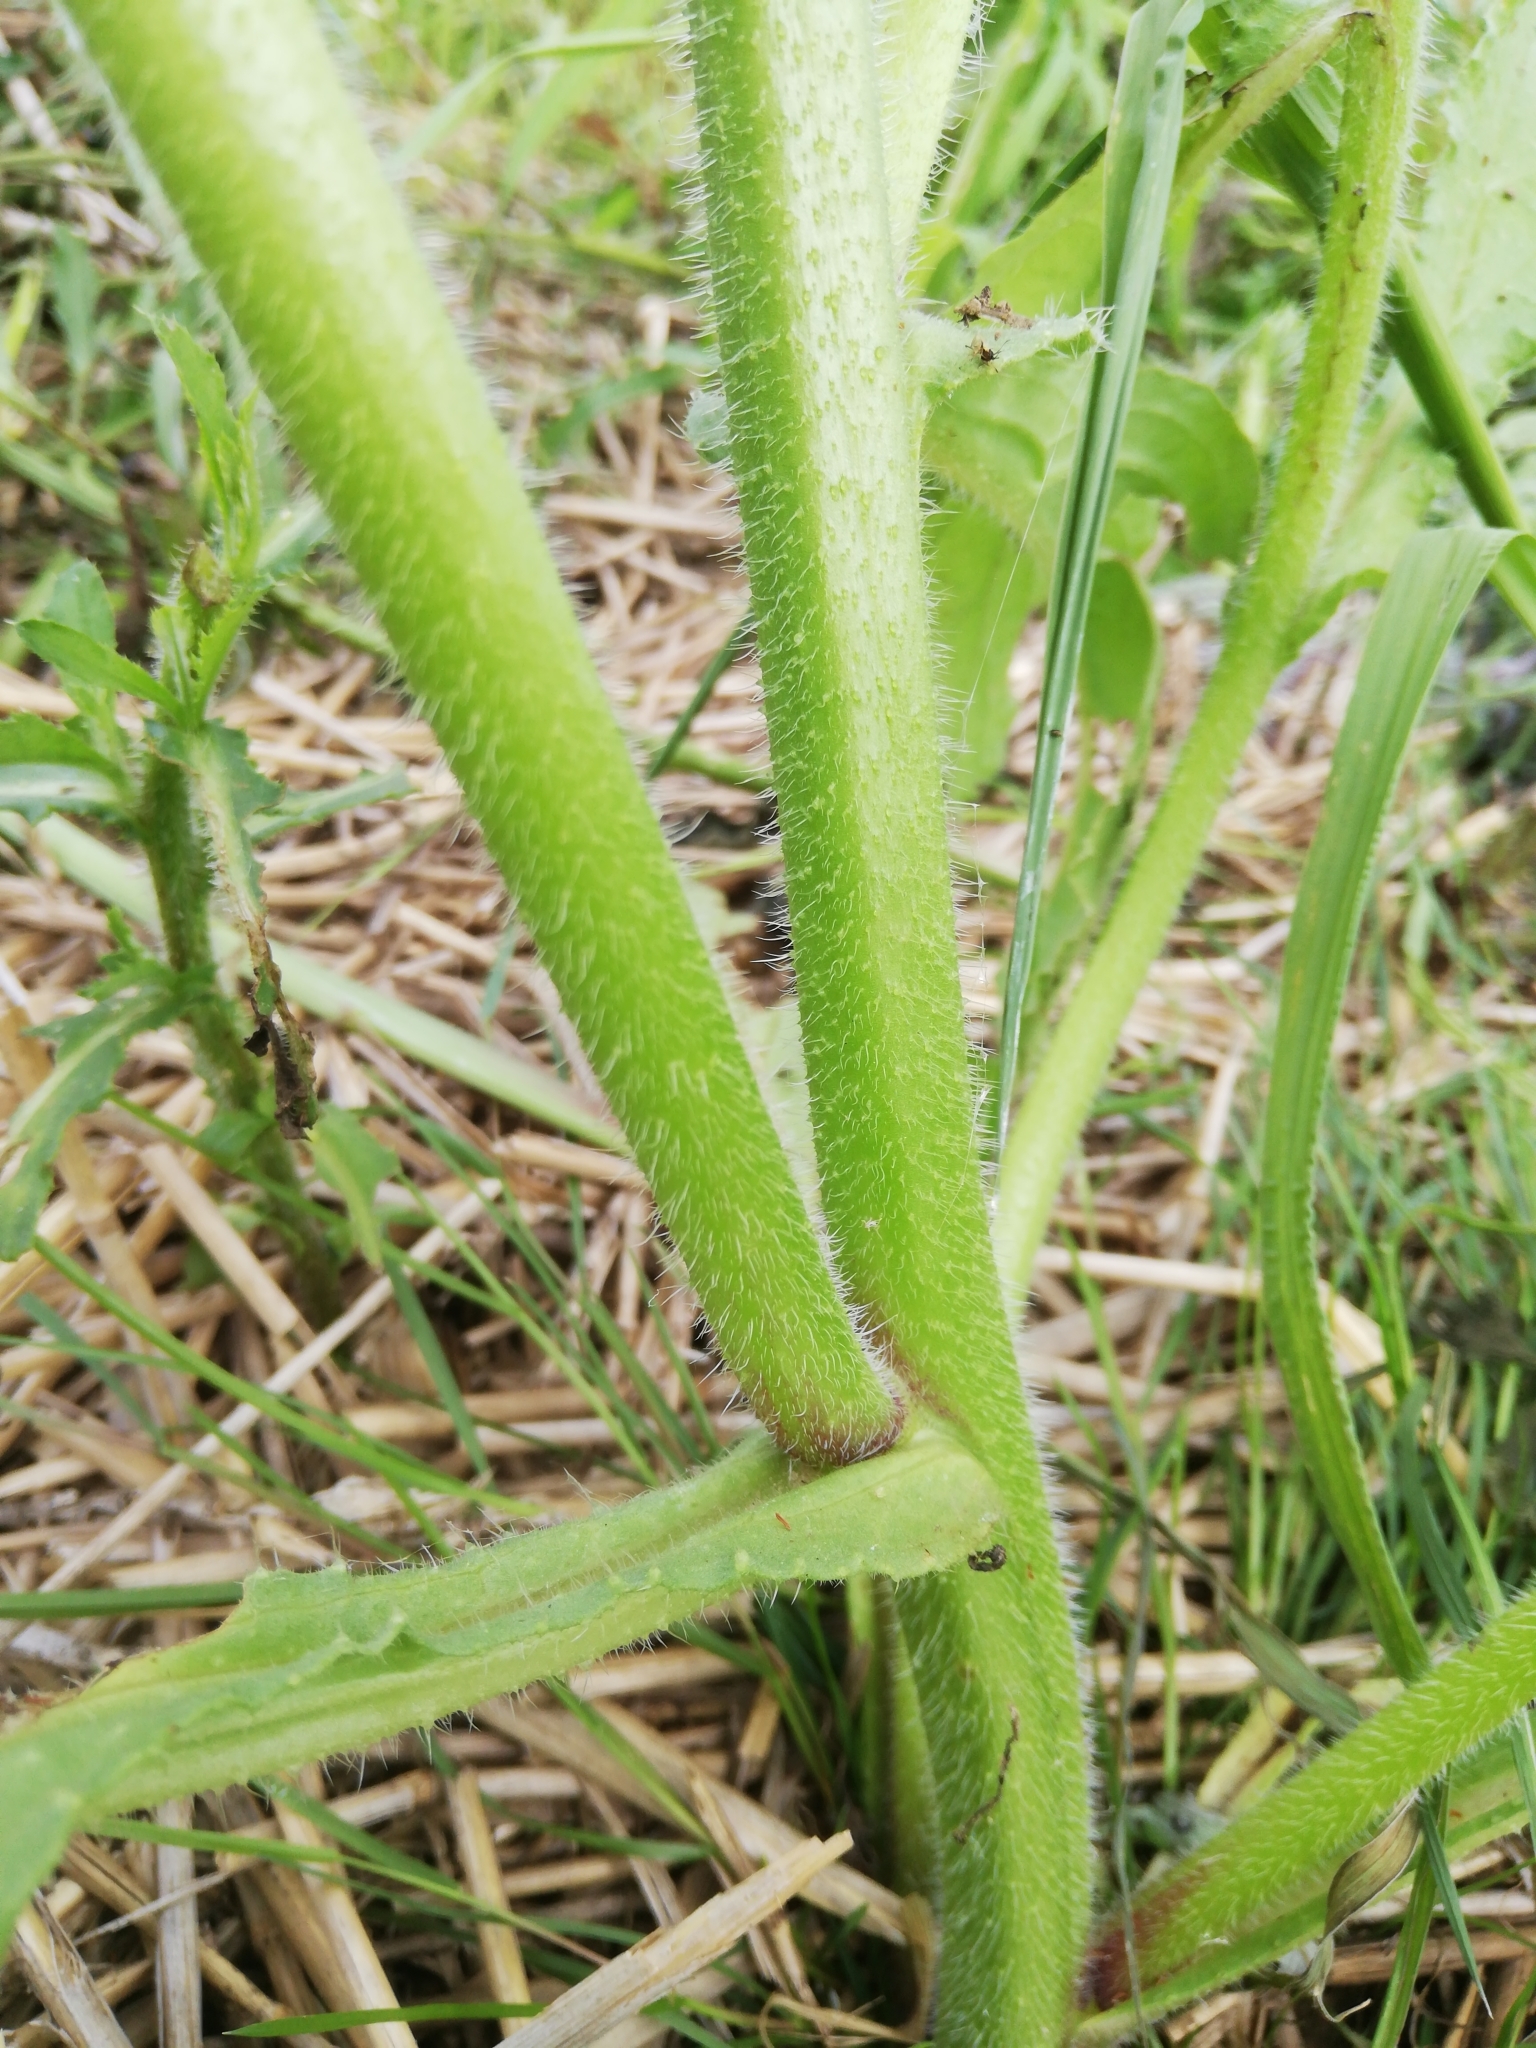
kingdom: Plantae
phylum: Tracheophyta
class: Magnoliopsida
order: Boraginales
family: Boraginaceae
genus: Borago
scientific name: Borago officinalis
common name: Borage
